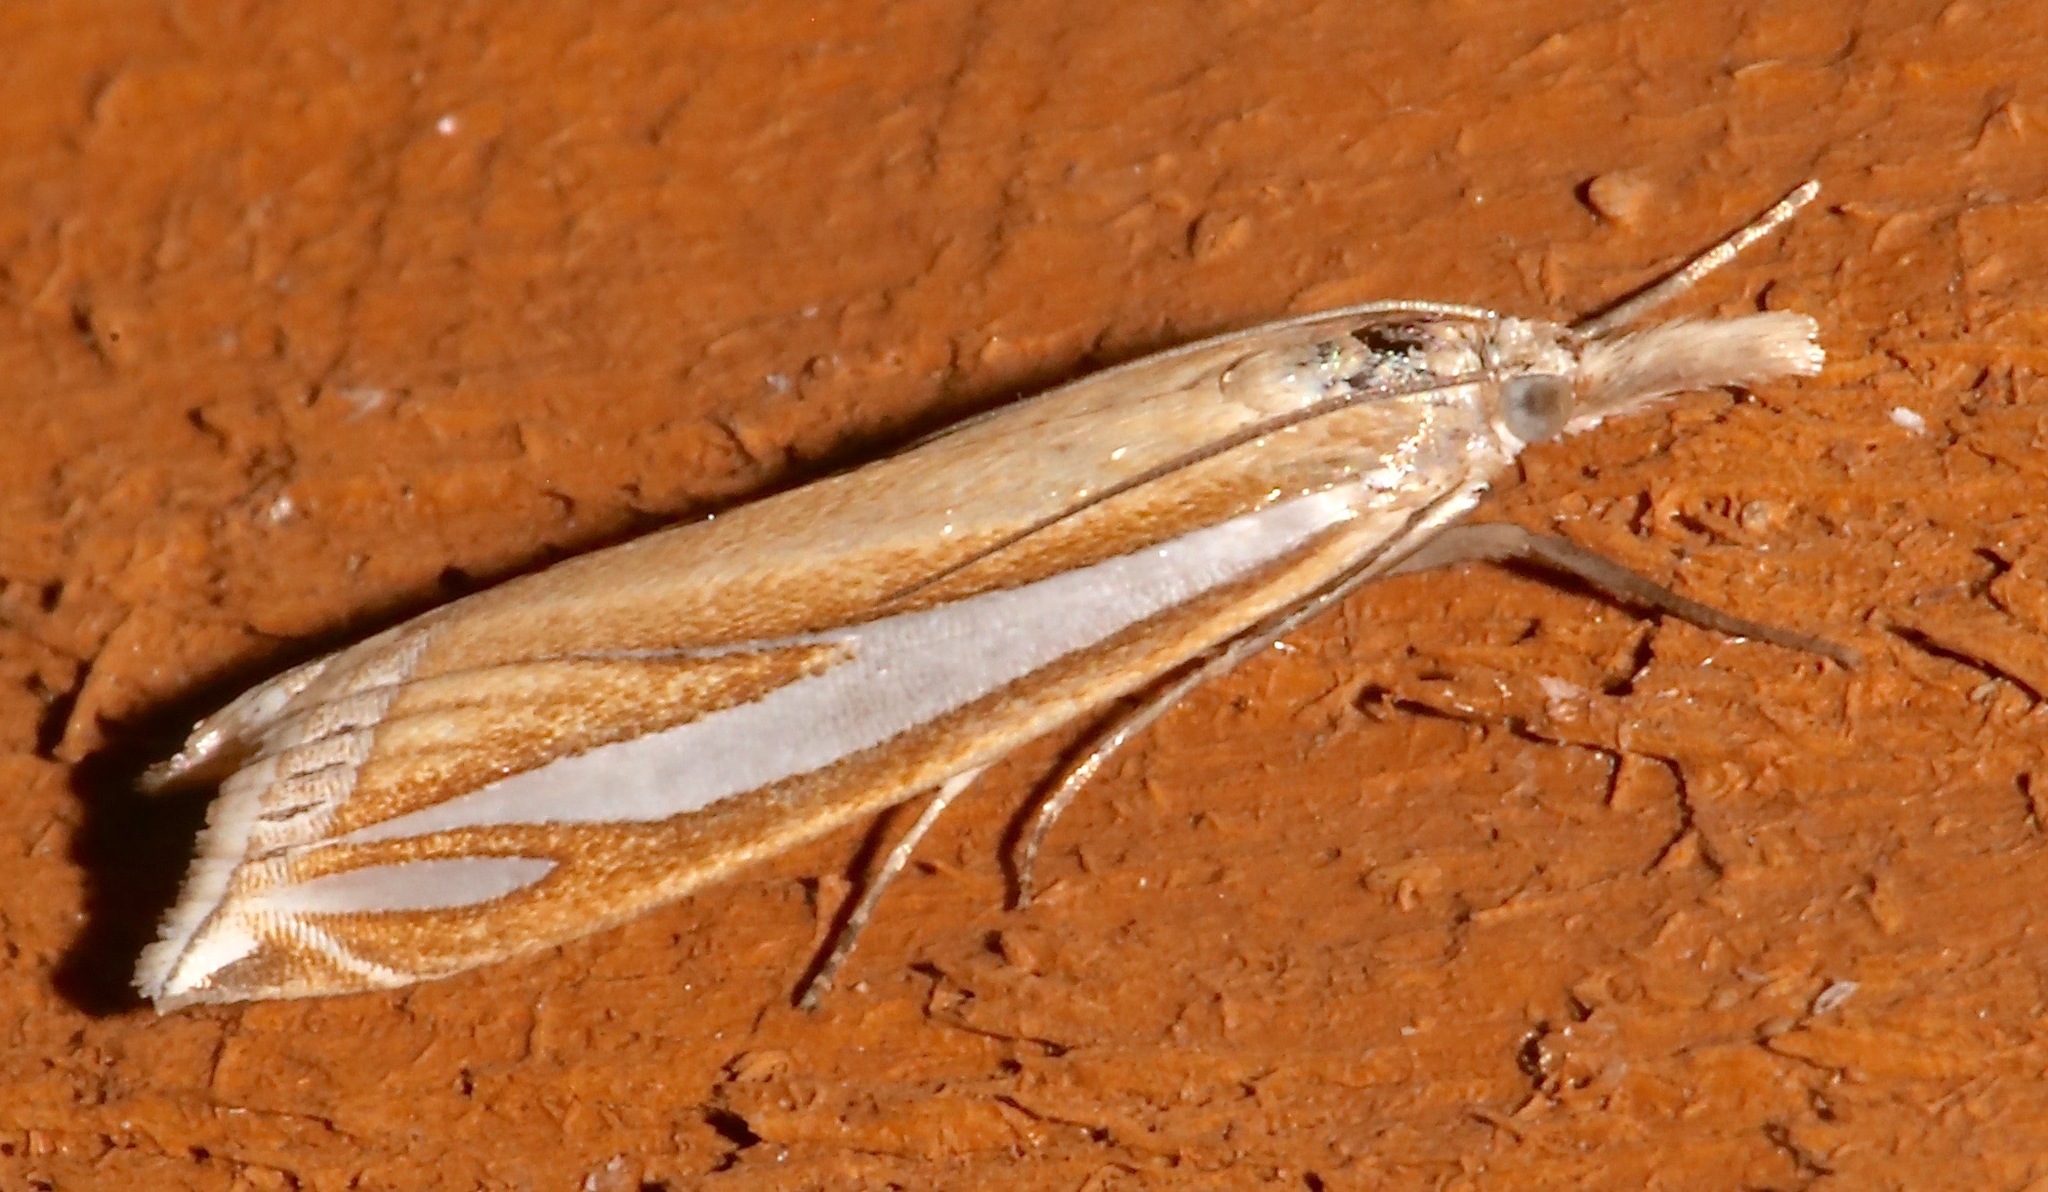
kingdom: Animalia
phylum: Arthropoda
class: Insecta
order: Lepidoptera
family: Crambidae
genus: Crambus
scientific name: Crambus satrapellus
